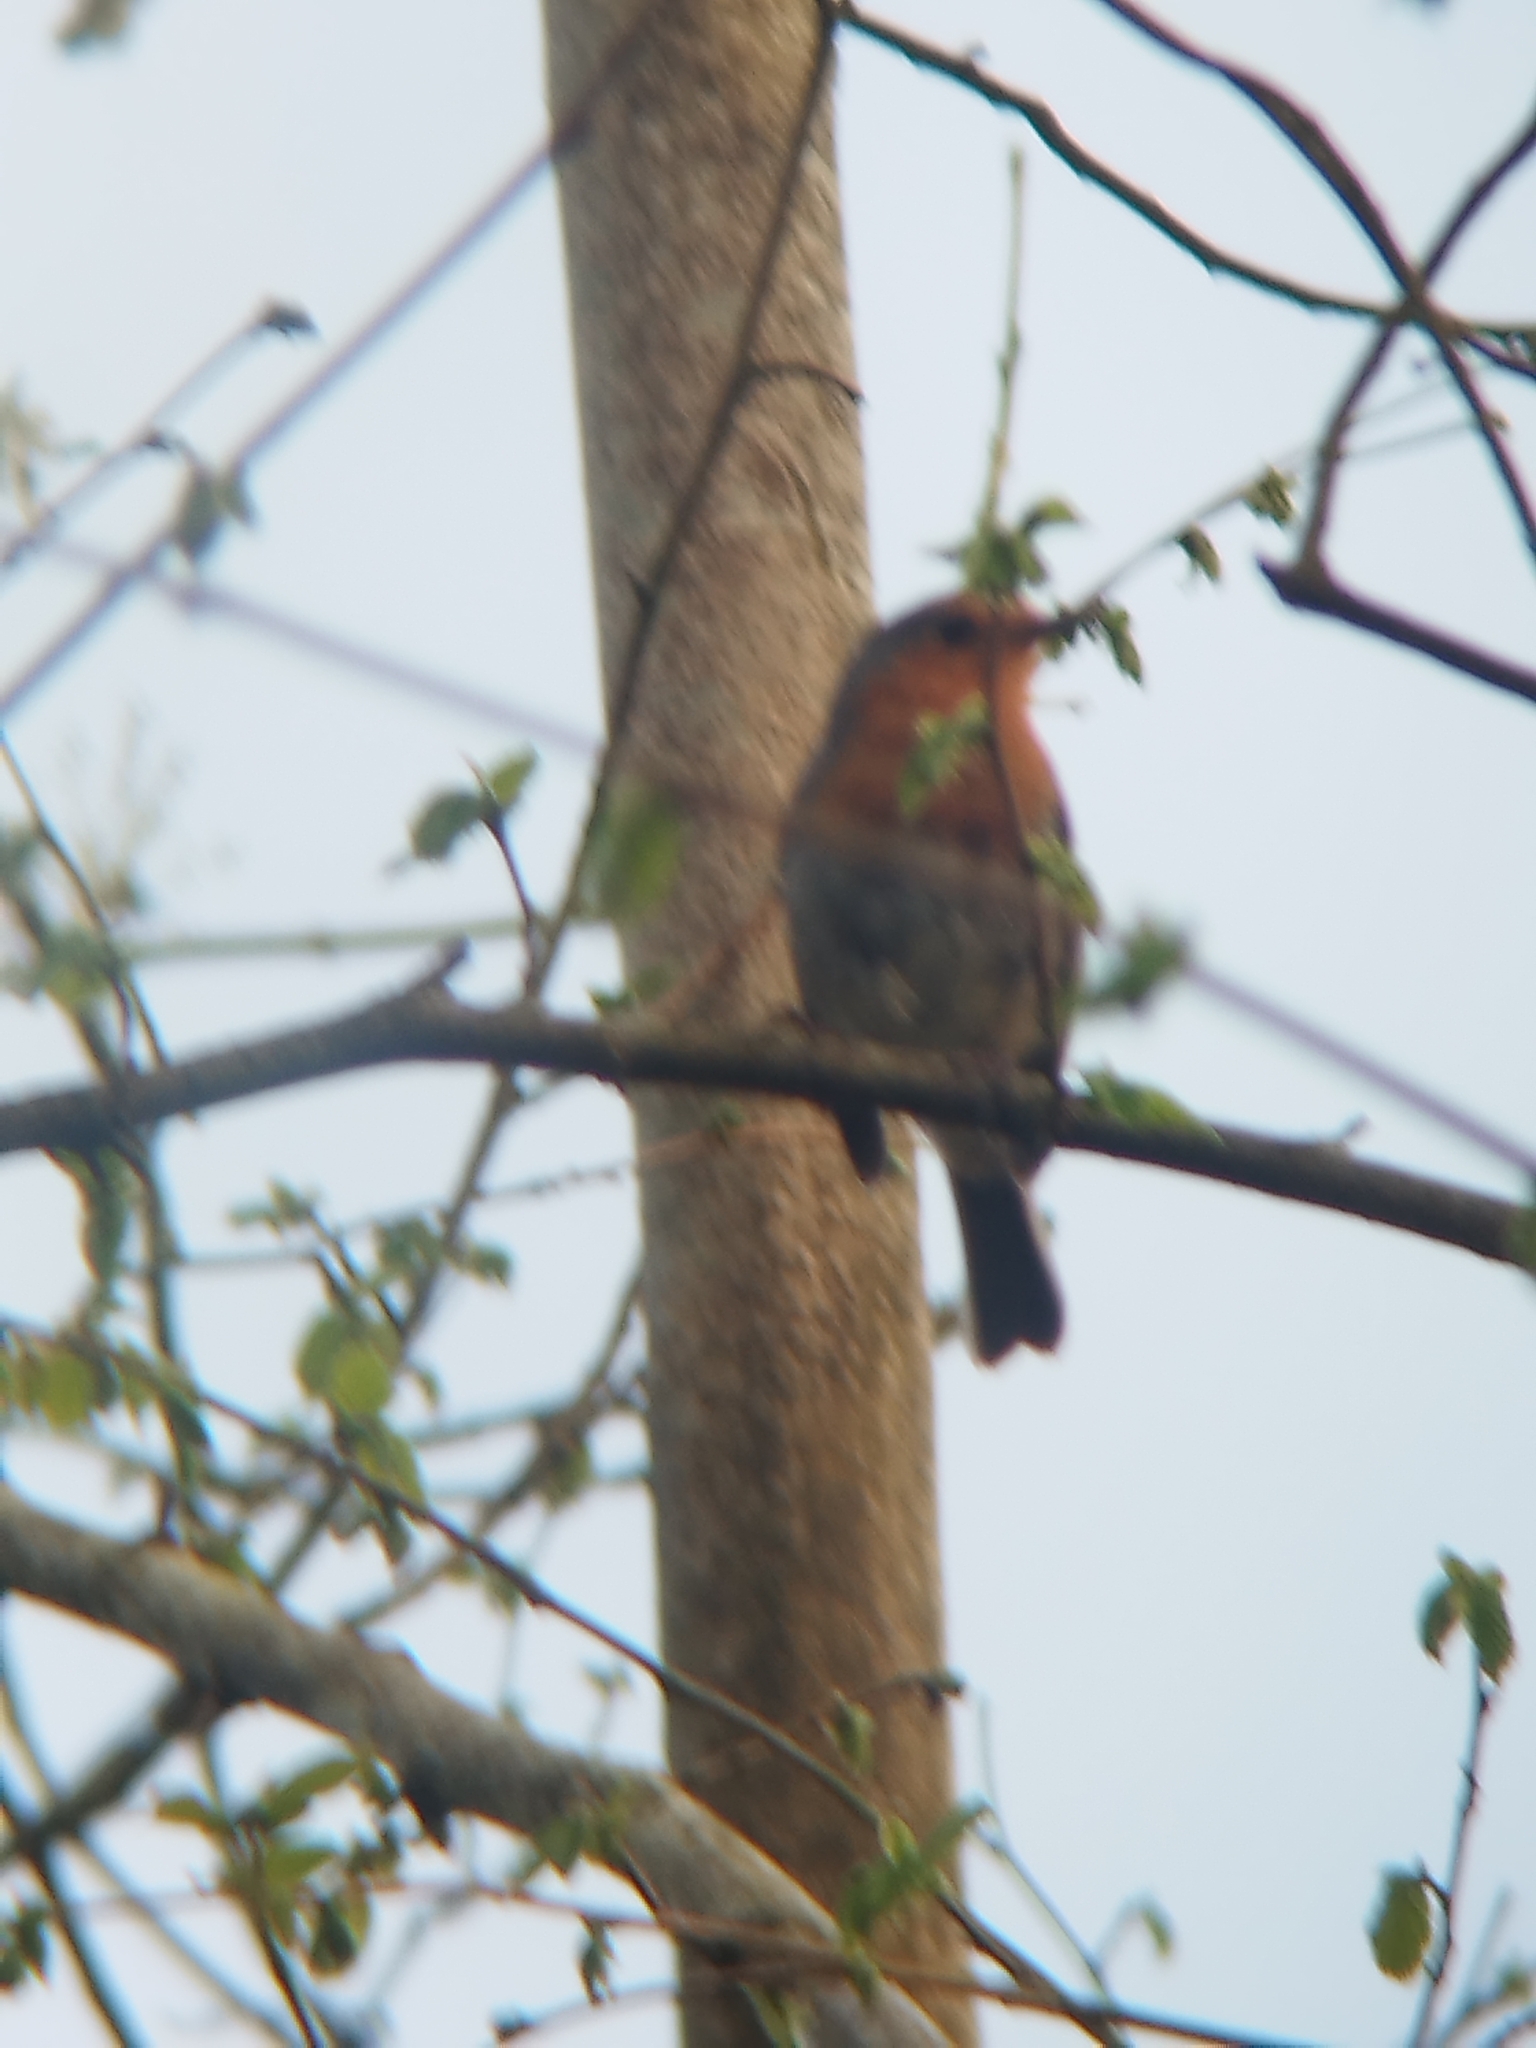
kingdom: Animalia
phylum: Chordata
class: Aves
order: Passeriformes
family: Muscicapidae
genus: Erithacus
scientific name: Erithacus rubecula
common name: European robin
